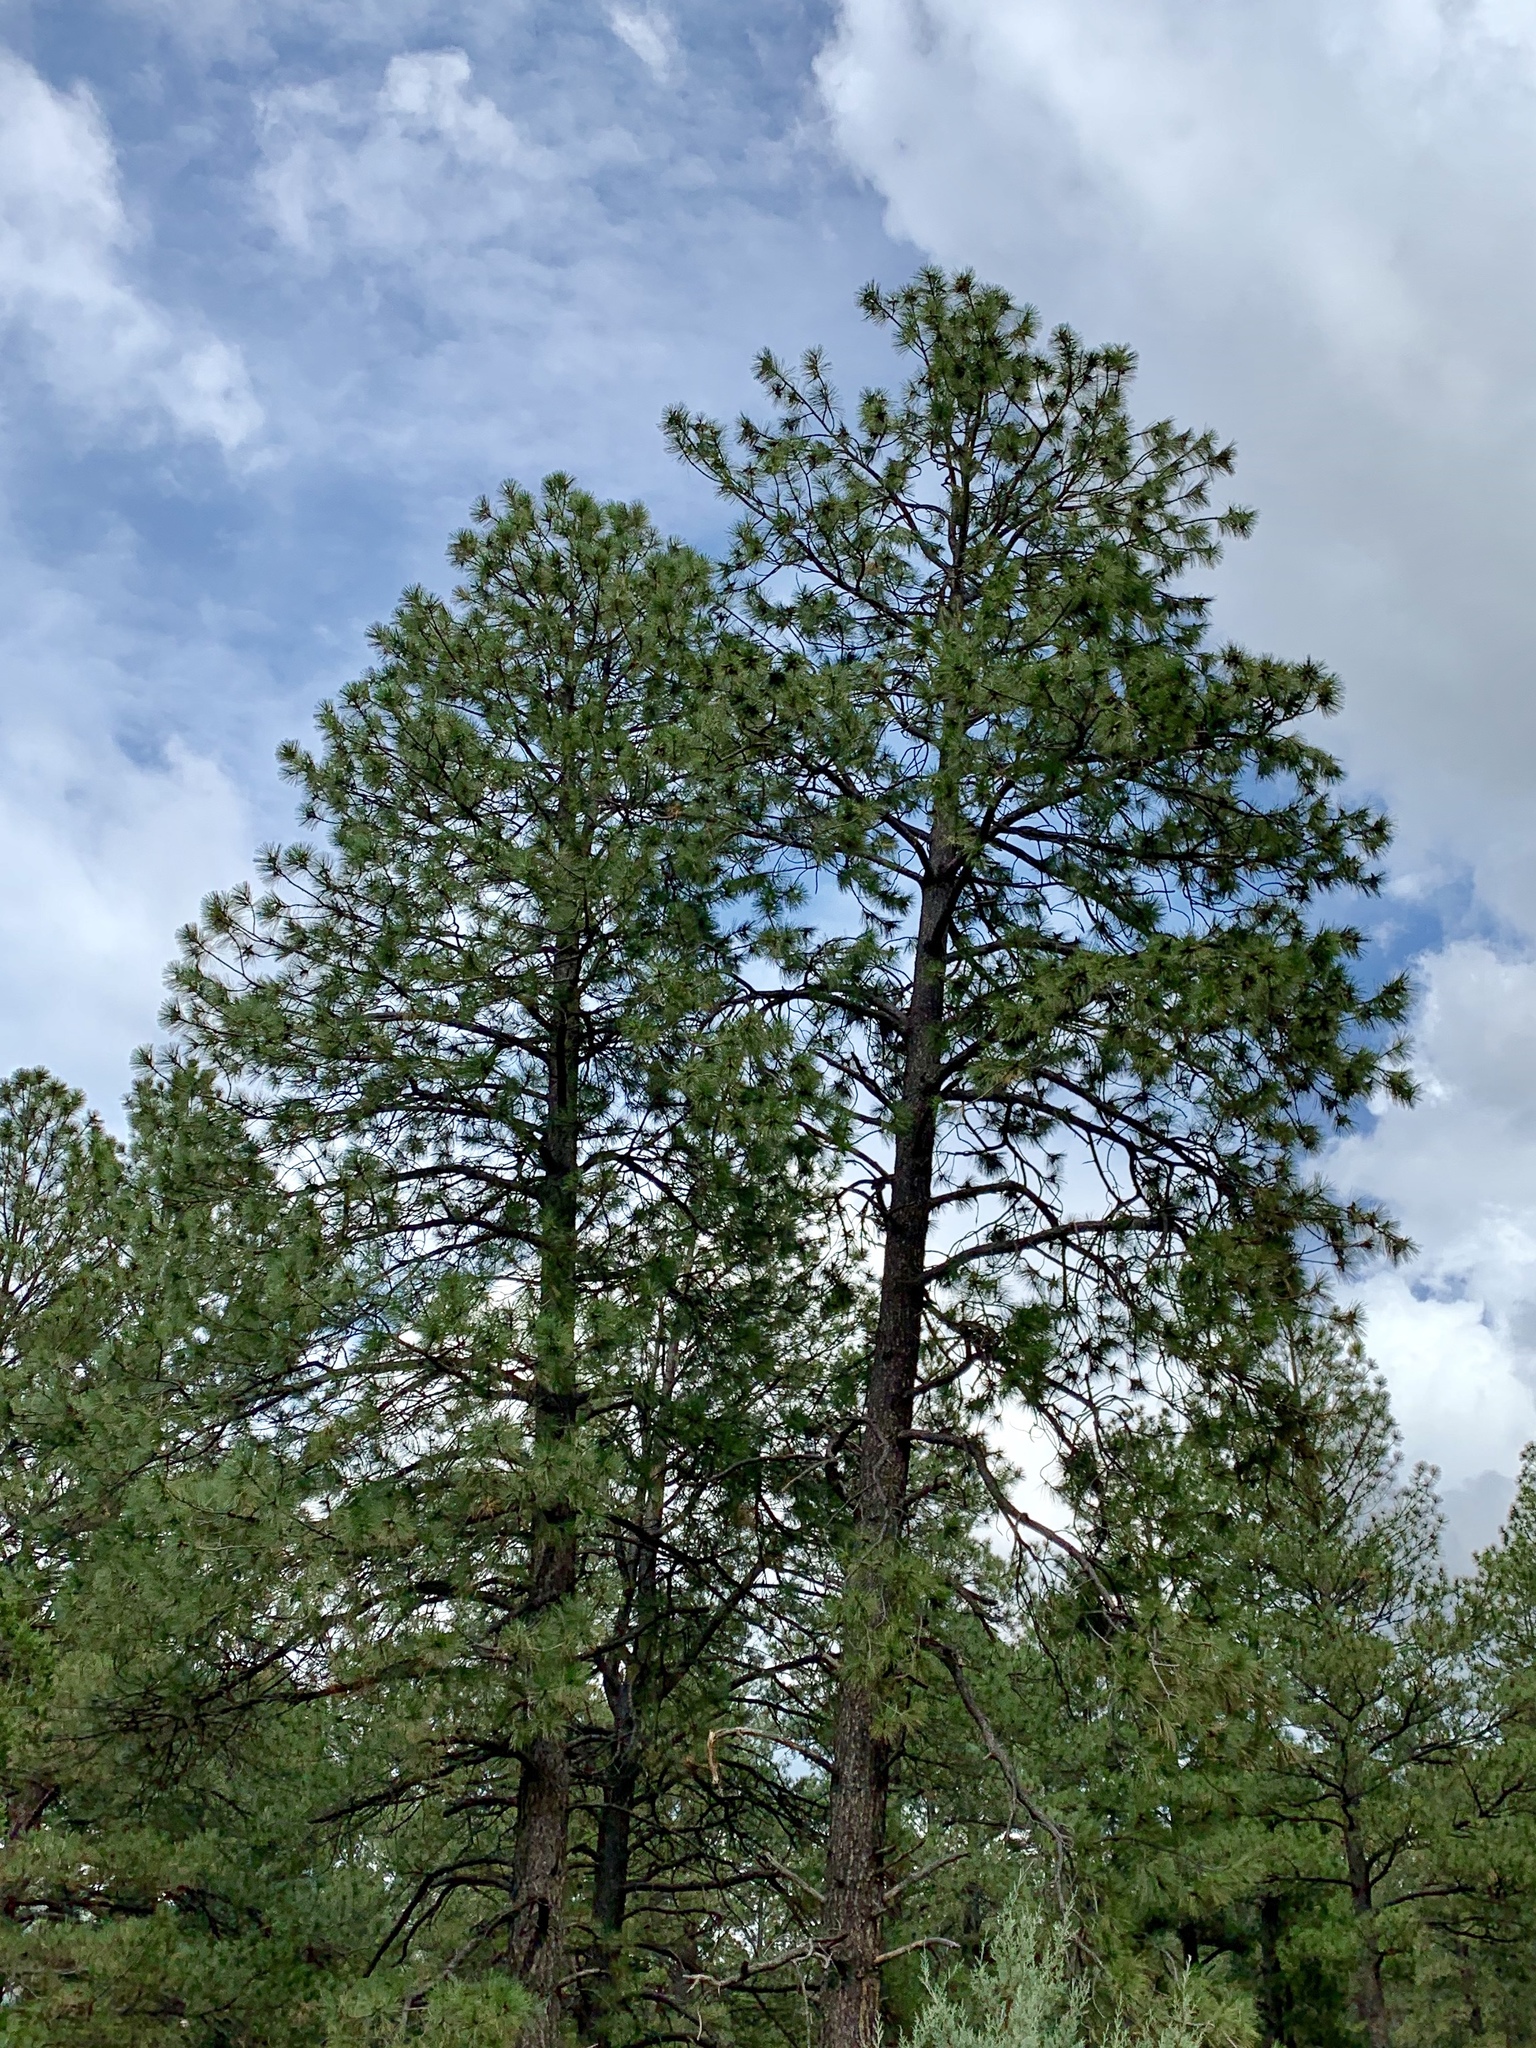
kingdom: Plantae
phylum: Tracheophyta
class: Pinopsida
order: Pinales
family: Pinaceae
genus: Pinus
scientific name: Pinus ponderosa
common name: Western yellow-pine
